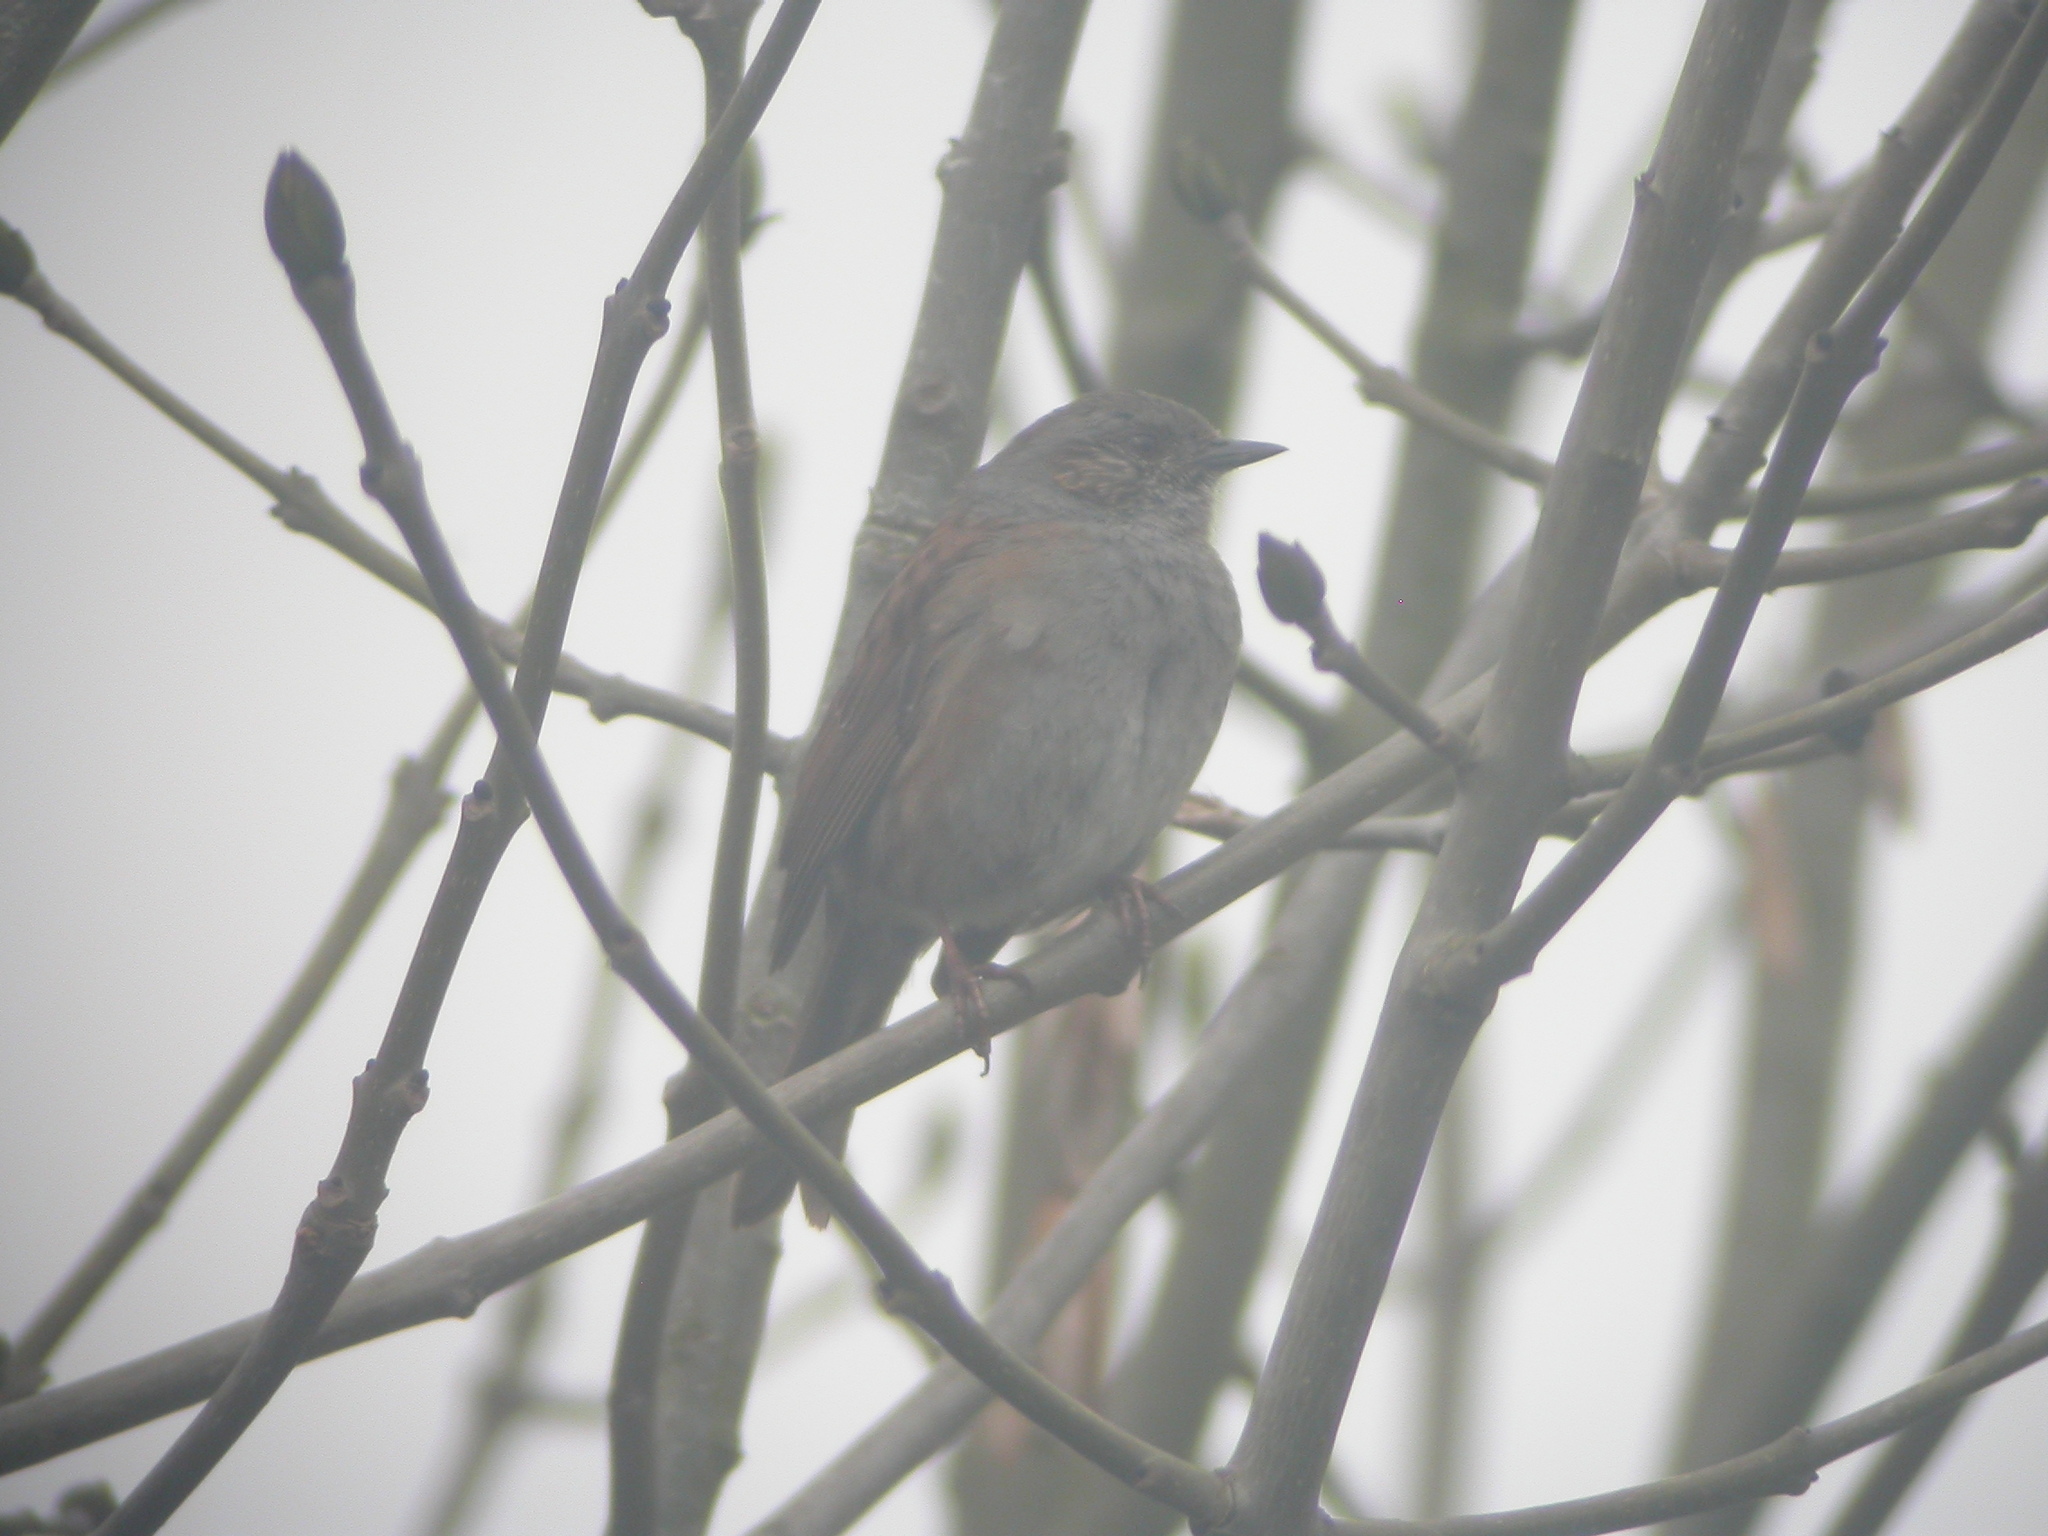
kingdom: Animalia
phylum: Chordata
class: Aves
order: Passeriformes
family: Prunellidae
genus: Prunella
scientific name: Prunella modularis
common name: Dunnock
